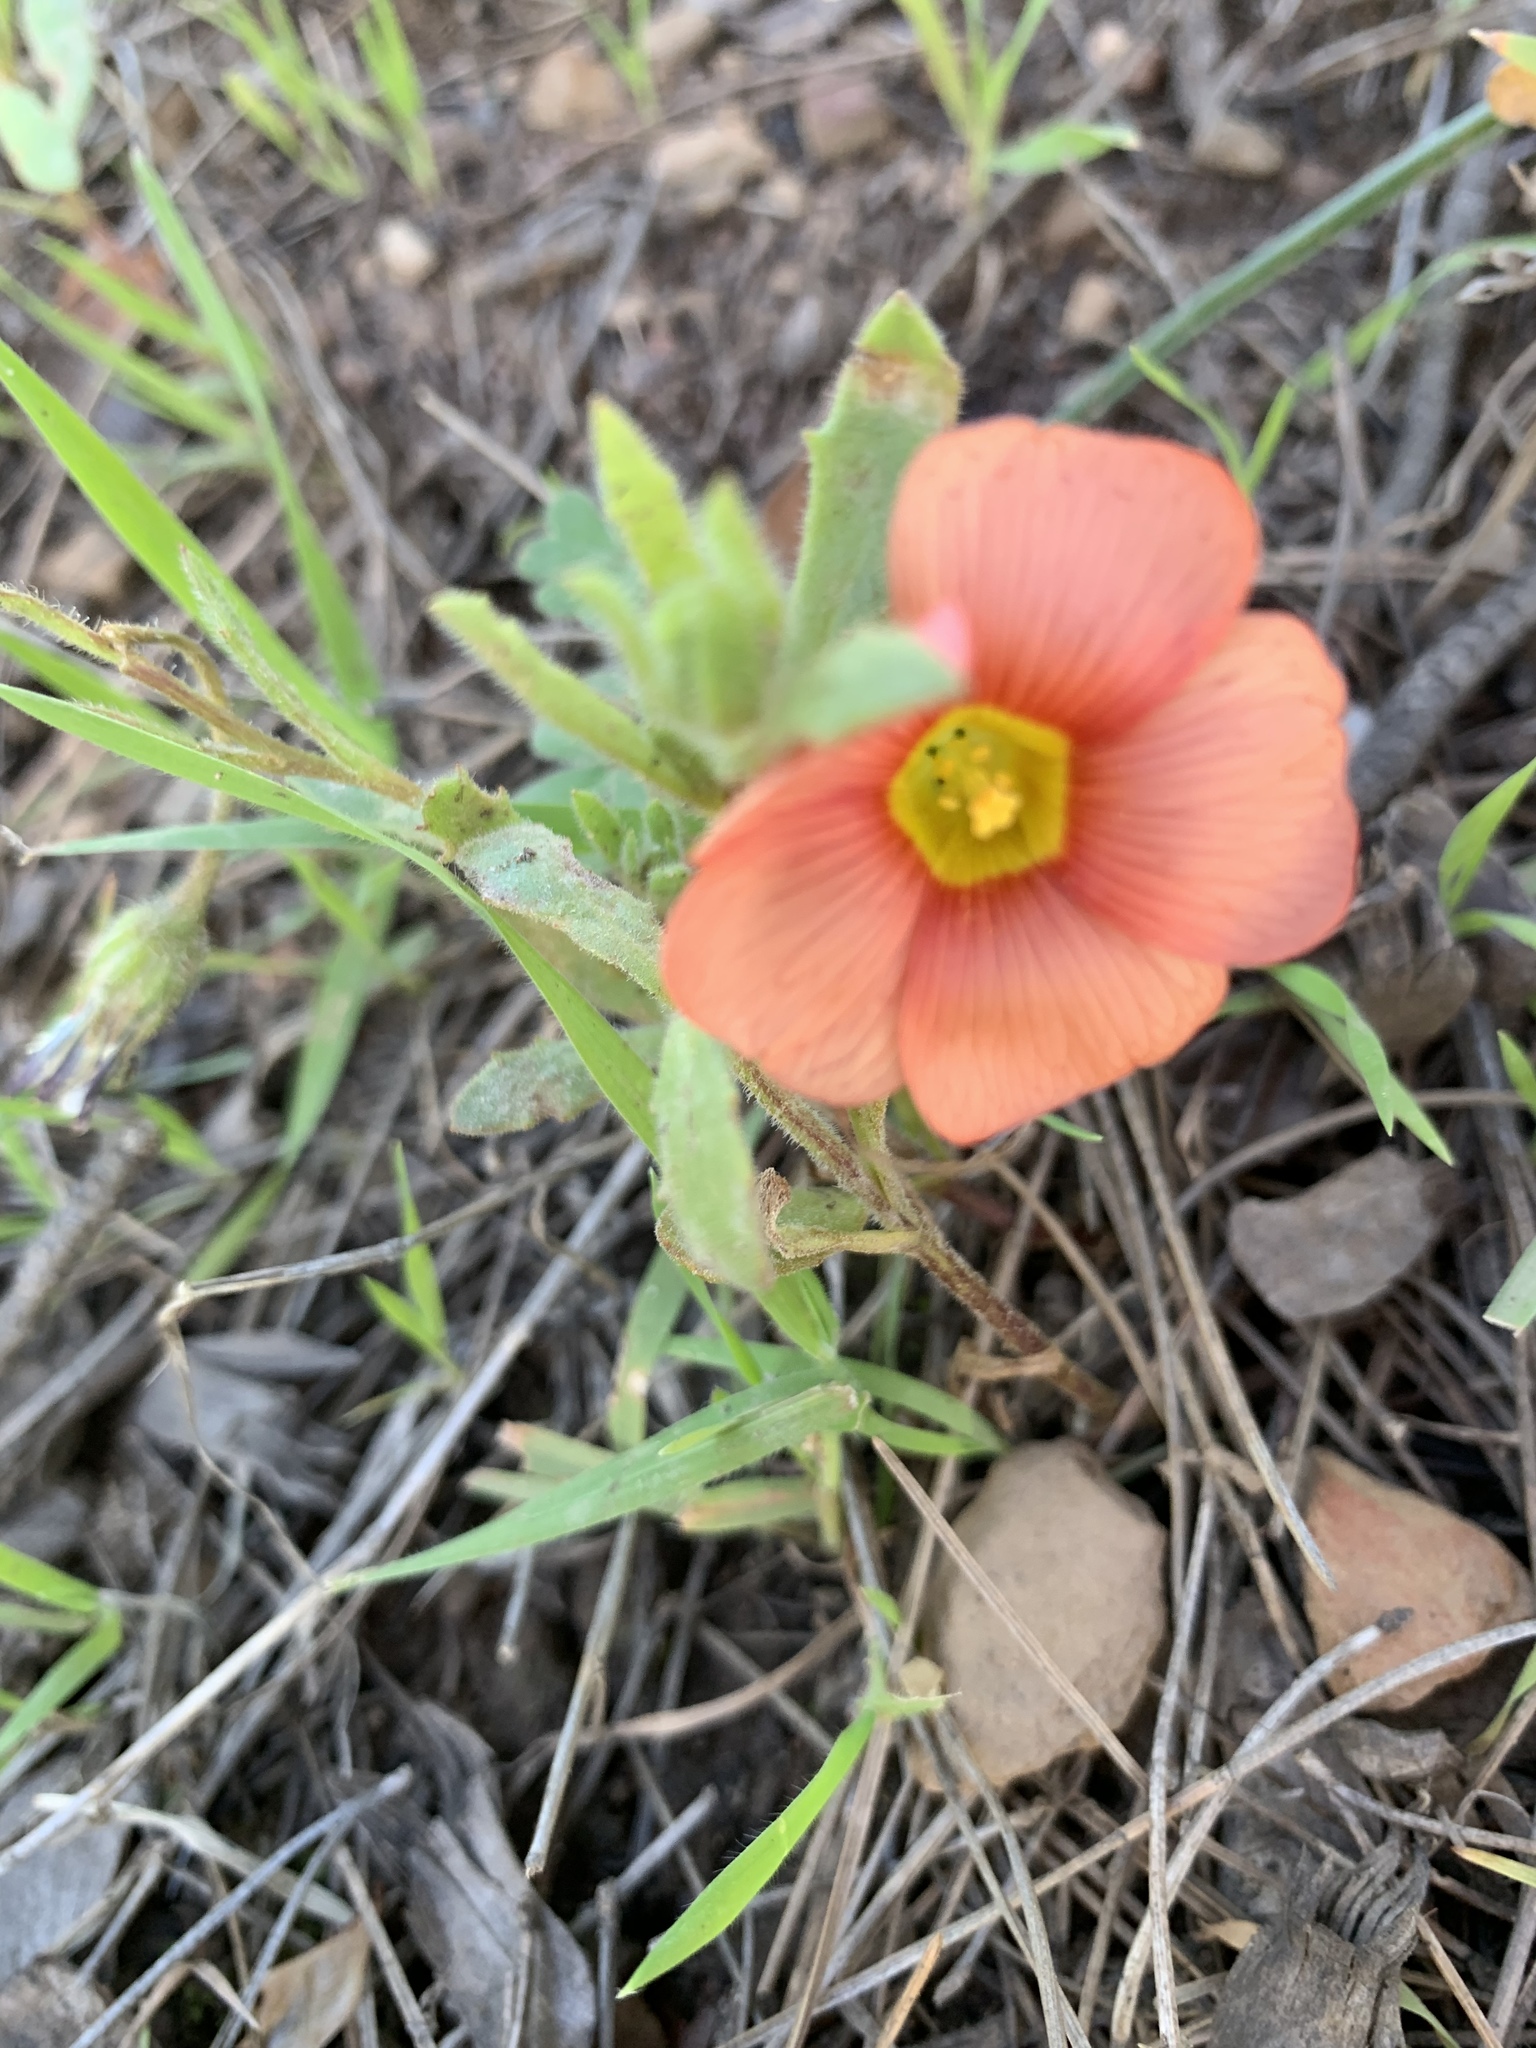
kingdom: Plantae
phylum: Tracheophyta
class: Magnoliopsida
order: Oxalidales
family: Oxalidaceae
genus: Oxalis
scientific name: Oxalis obtusa
